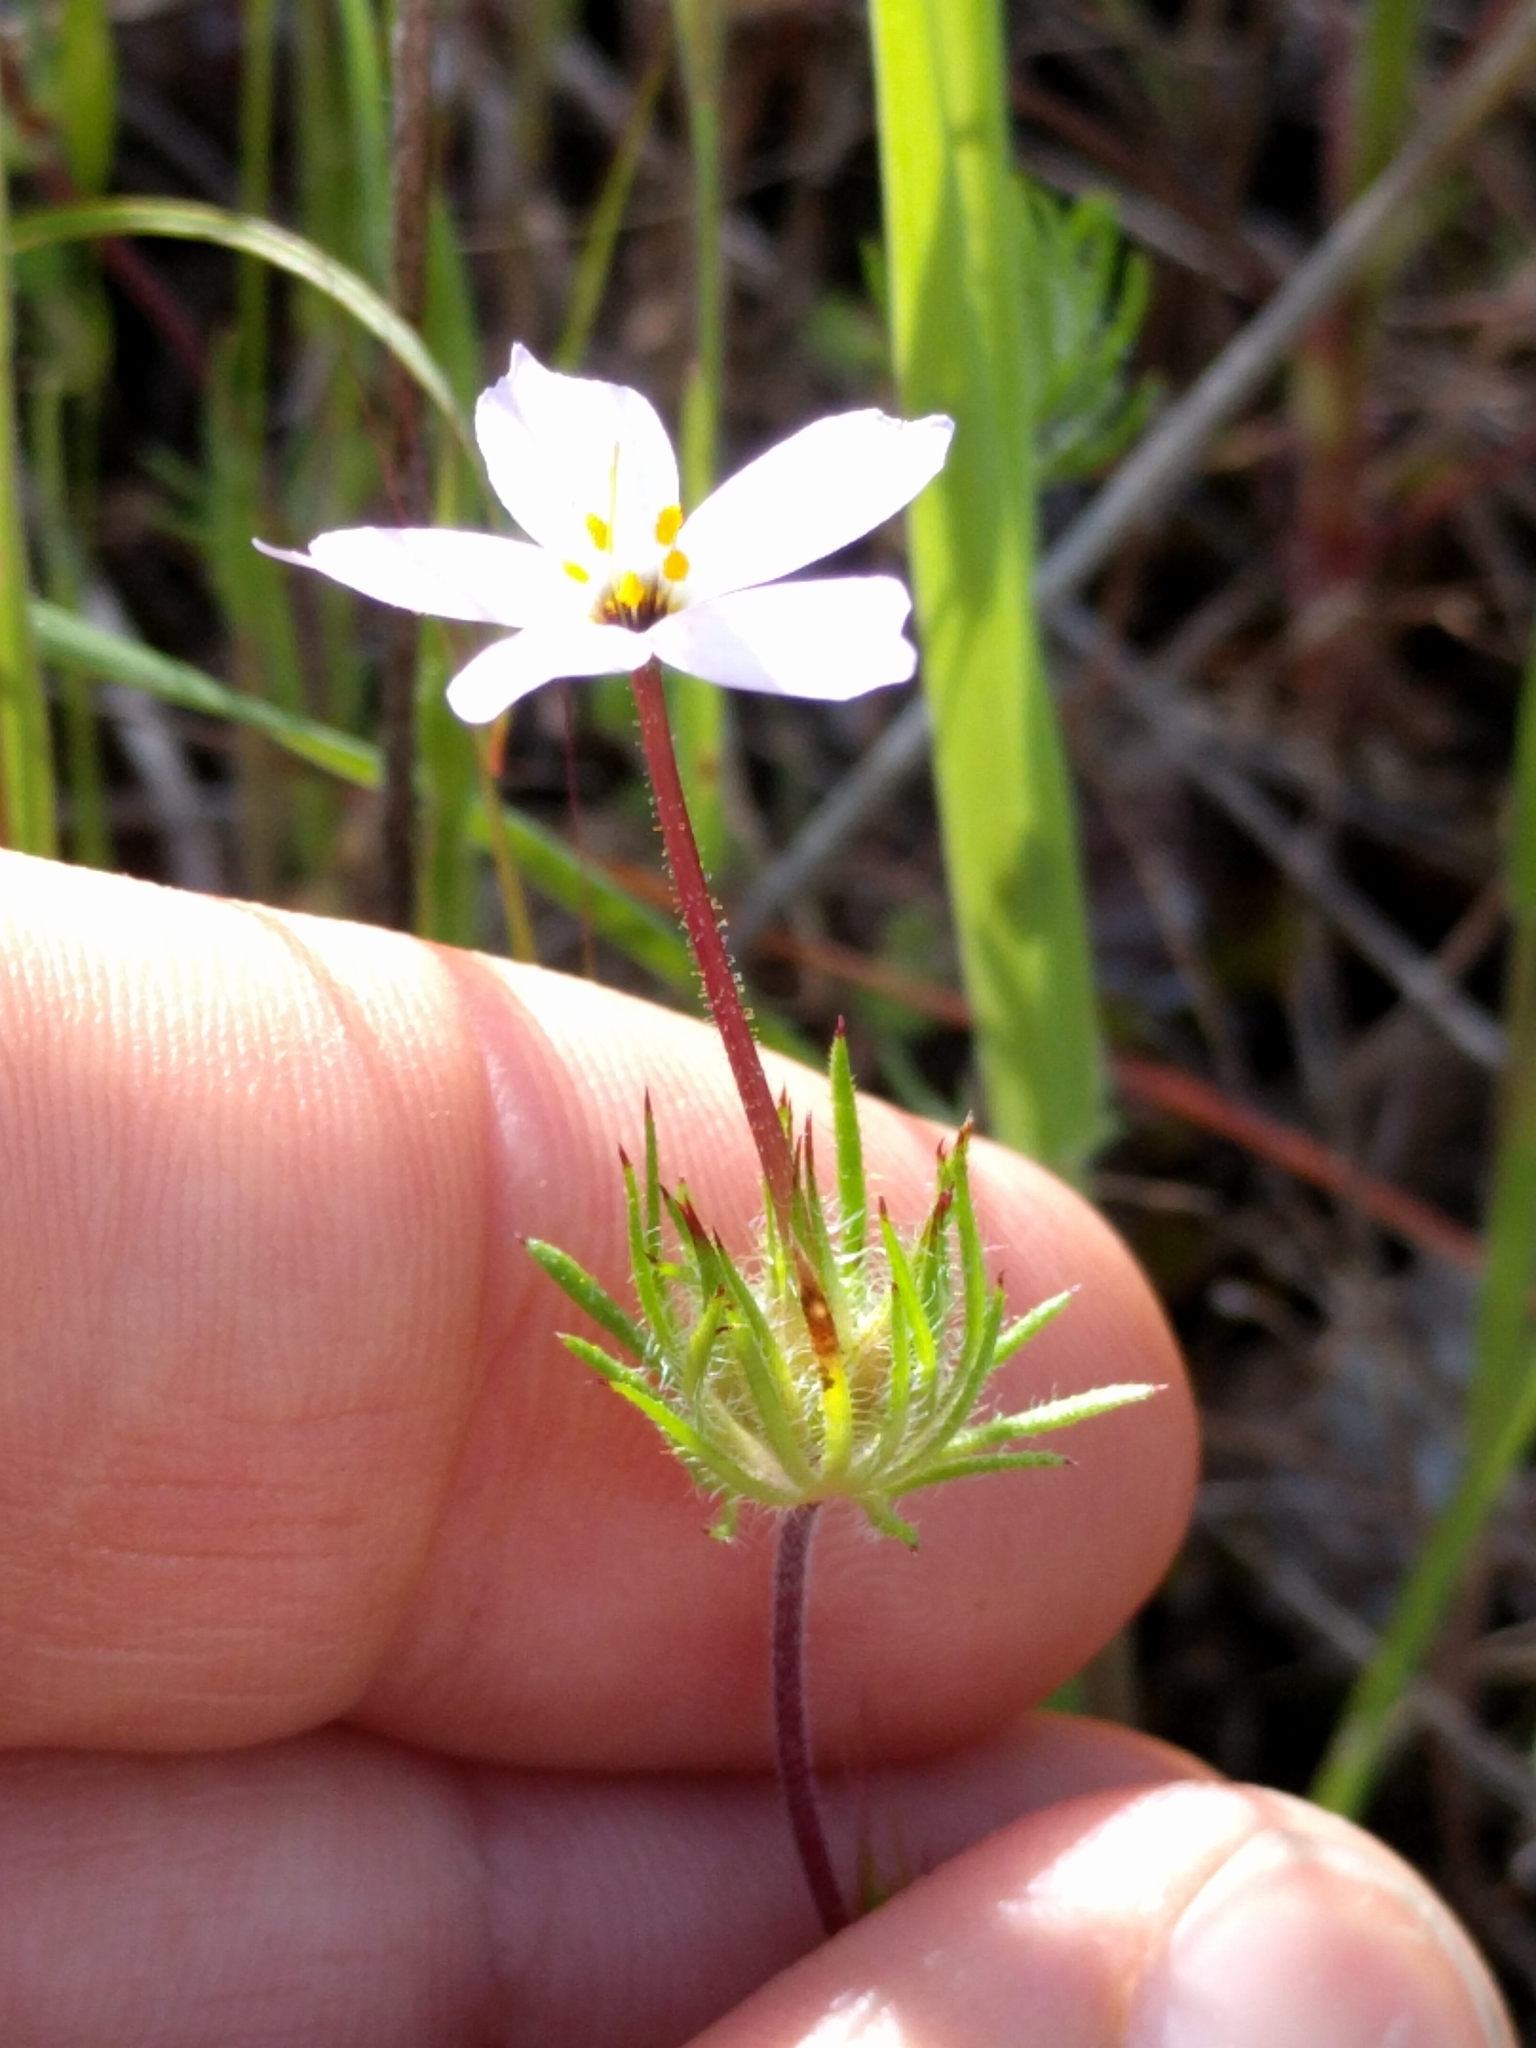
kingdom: Plantae
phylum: Tracheophyta
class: Magnoliopsida
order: Ericales
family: Polemoniaceae
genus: Leptosiphon
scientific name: Leptosiphon androsaceus
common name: False babystars
